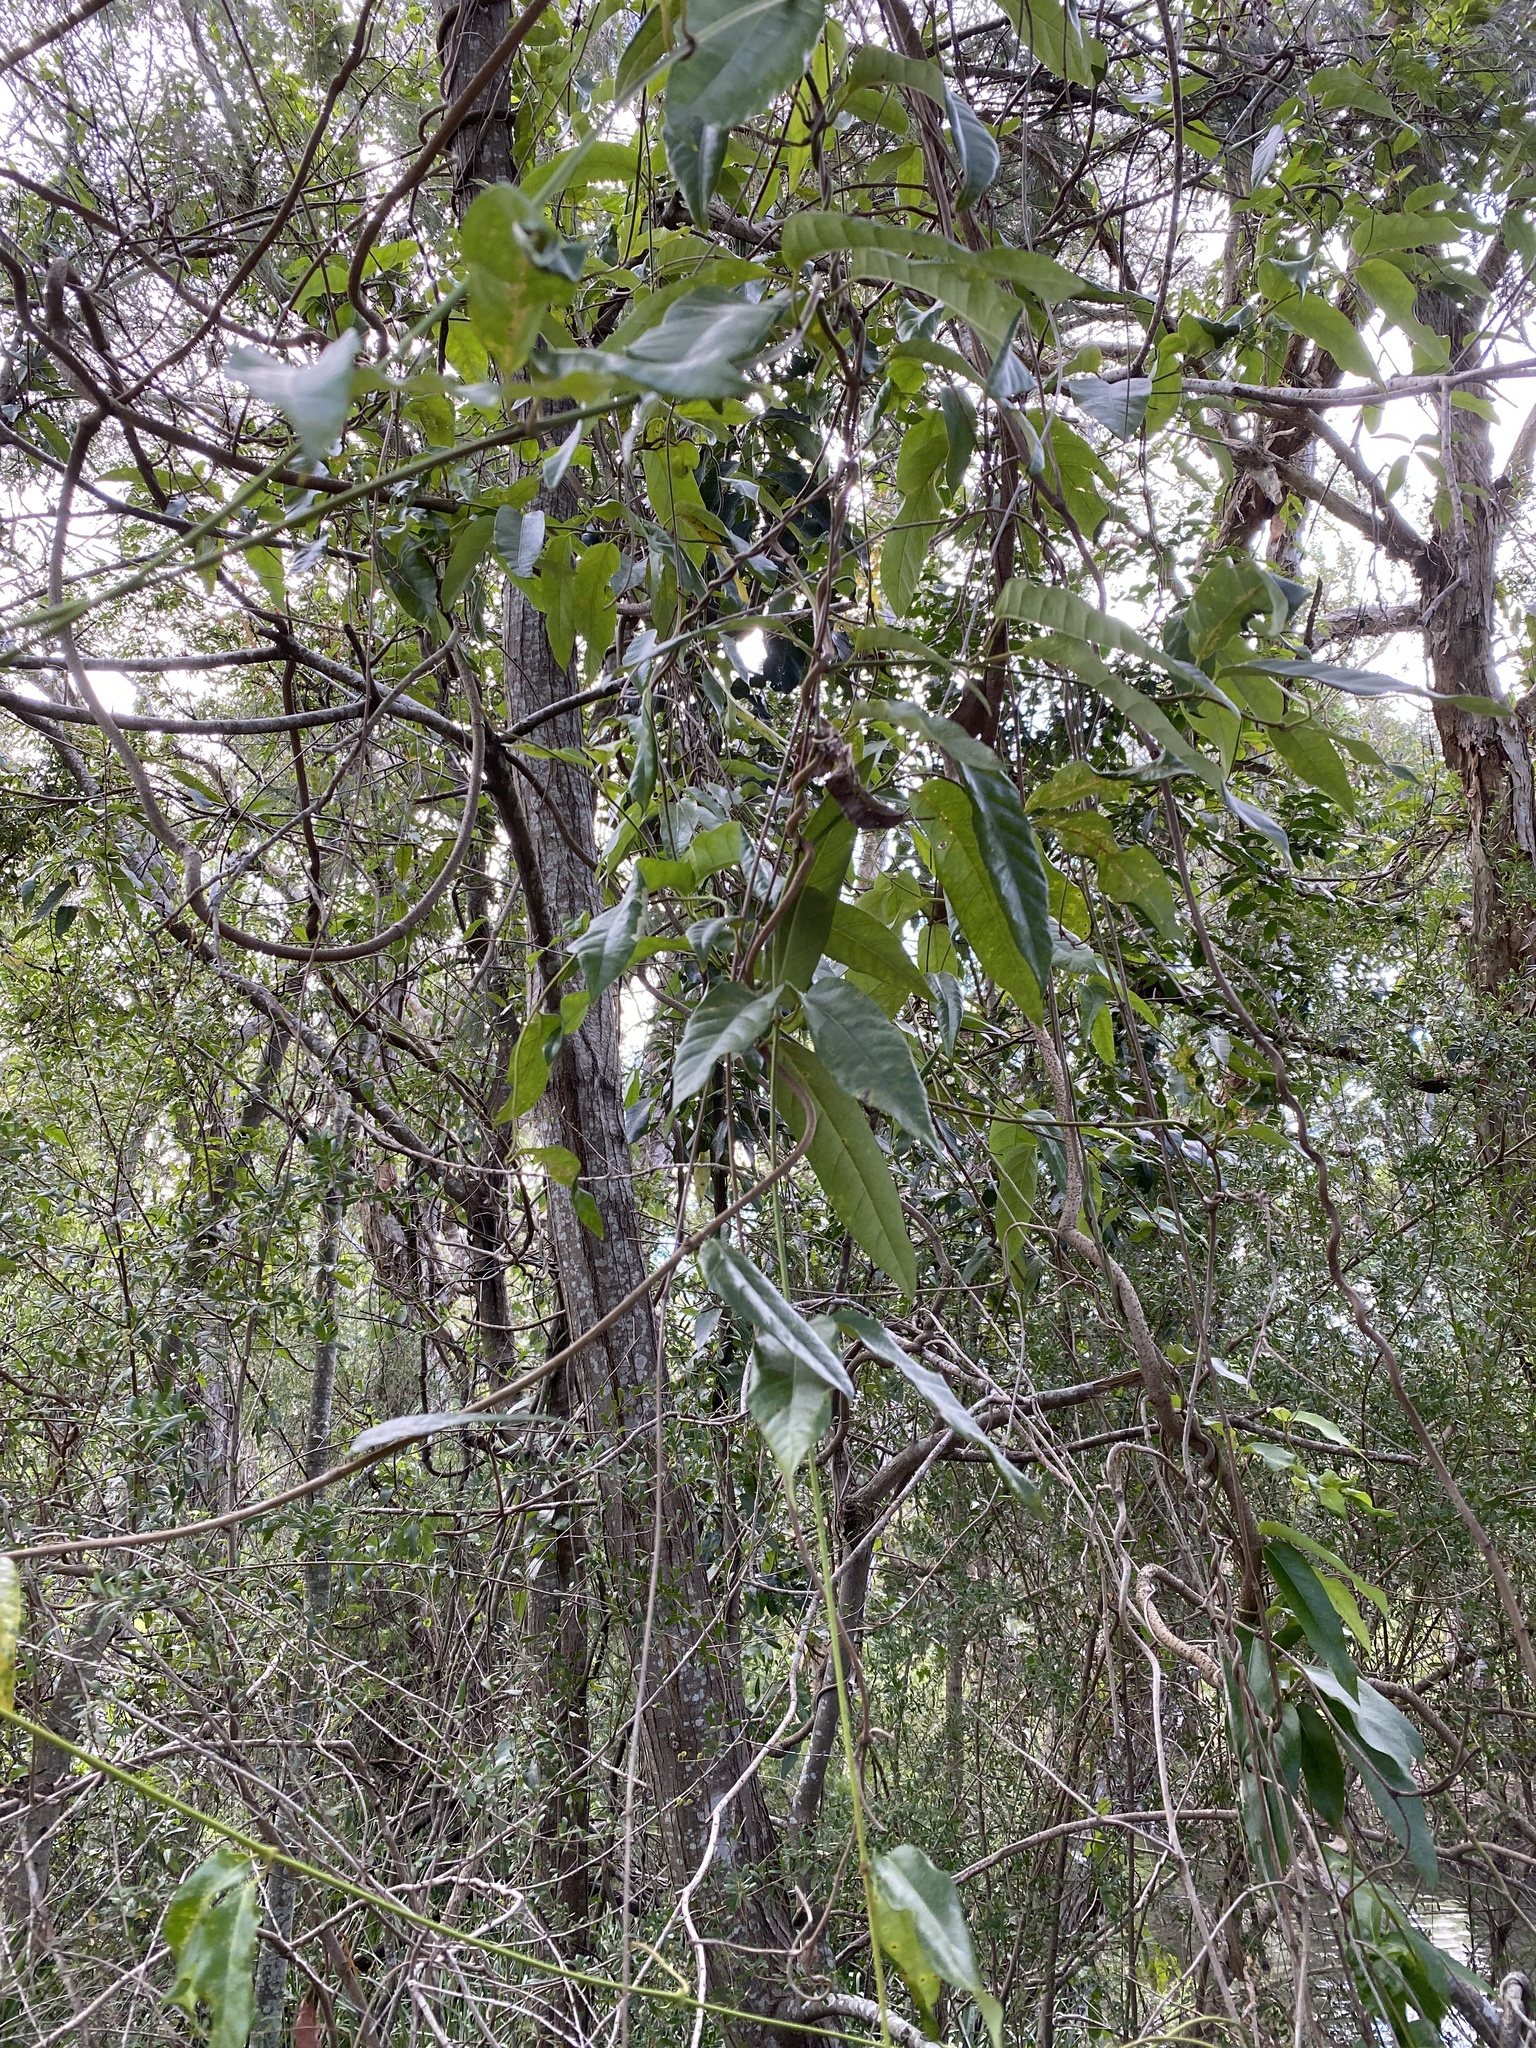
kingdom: Plantae
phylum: Tracheophyta
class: Magnoliopsida
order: Gentianales
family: Apocynaceae
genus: Parsonsia
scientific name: Parsonsia straminea
